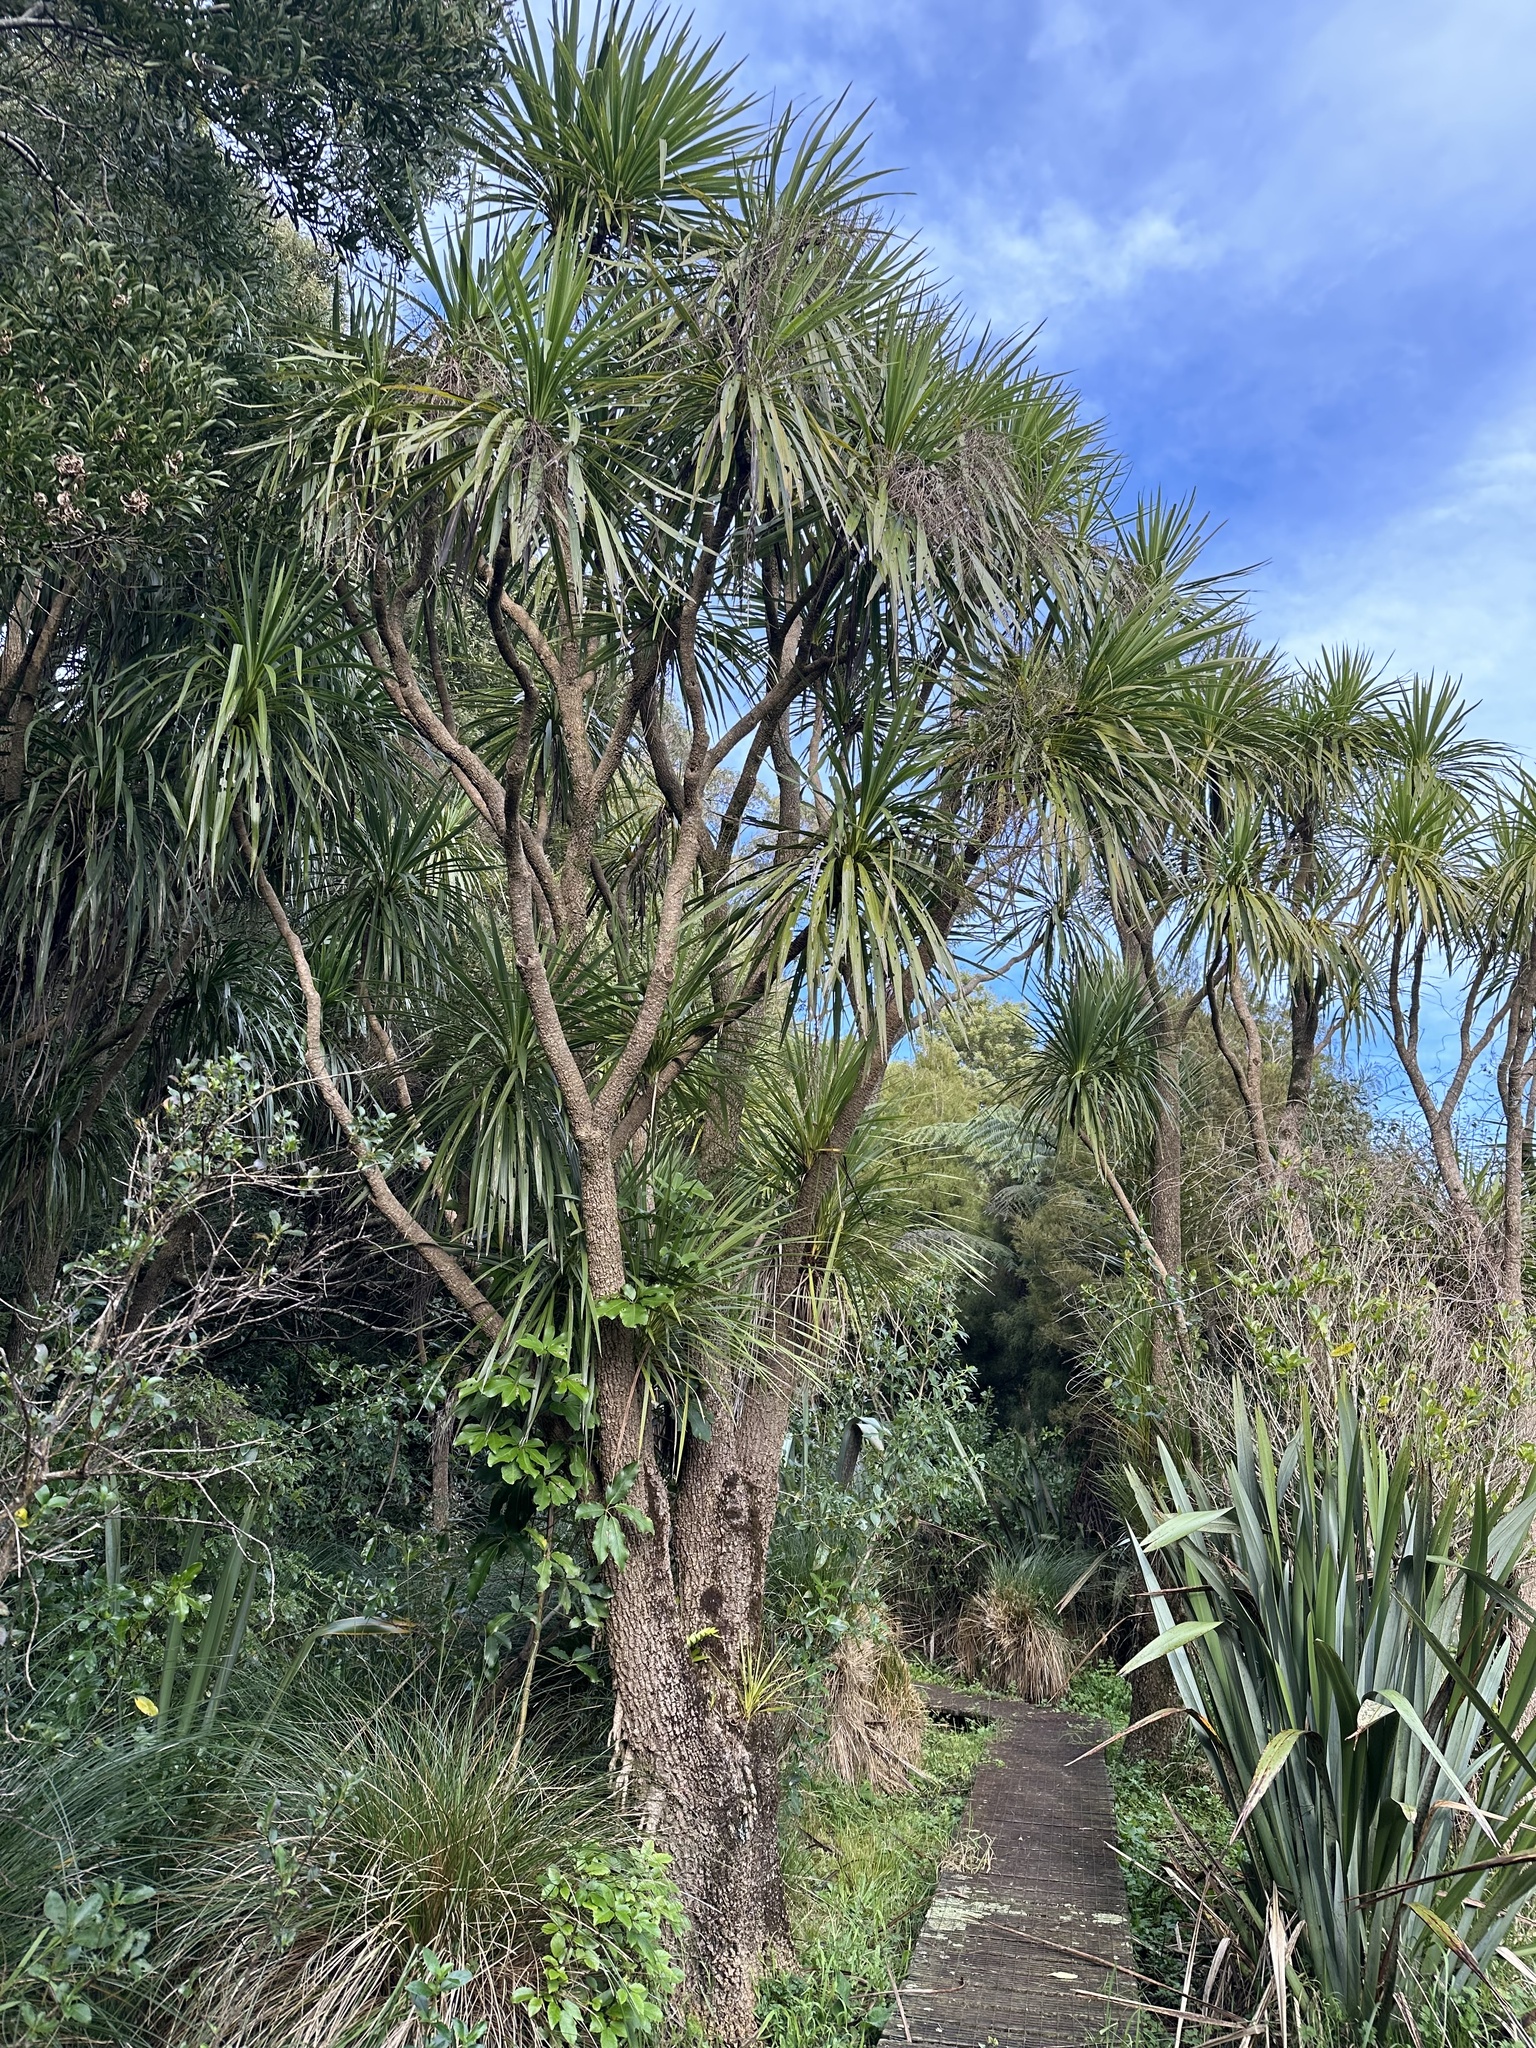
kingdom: Plantae
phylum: Tracheophyta
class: Liliopsida
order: Asparagales
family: Asparagaceae
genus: Cordyline
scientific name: Cordyline australis
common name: Cabbage-palm
